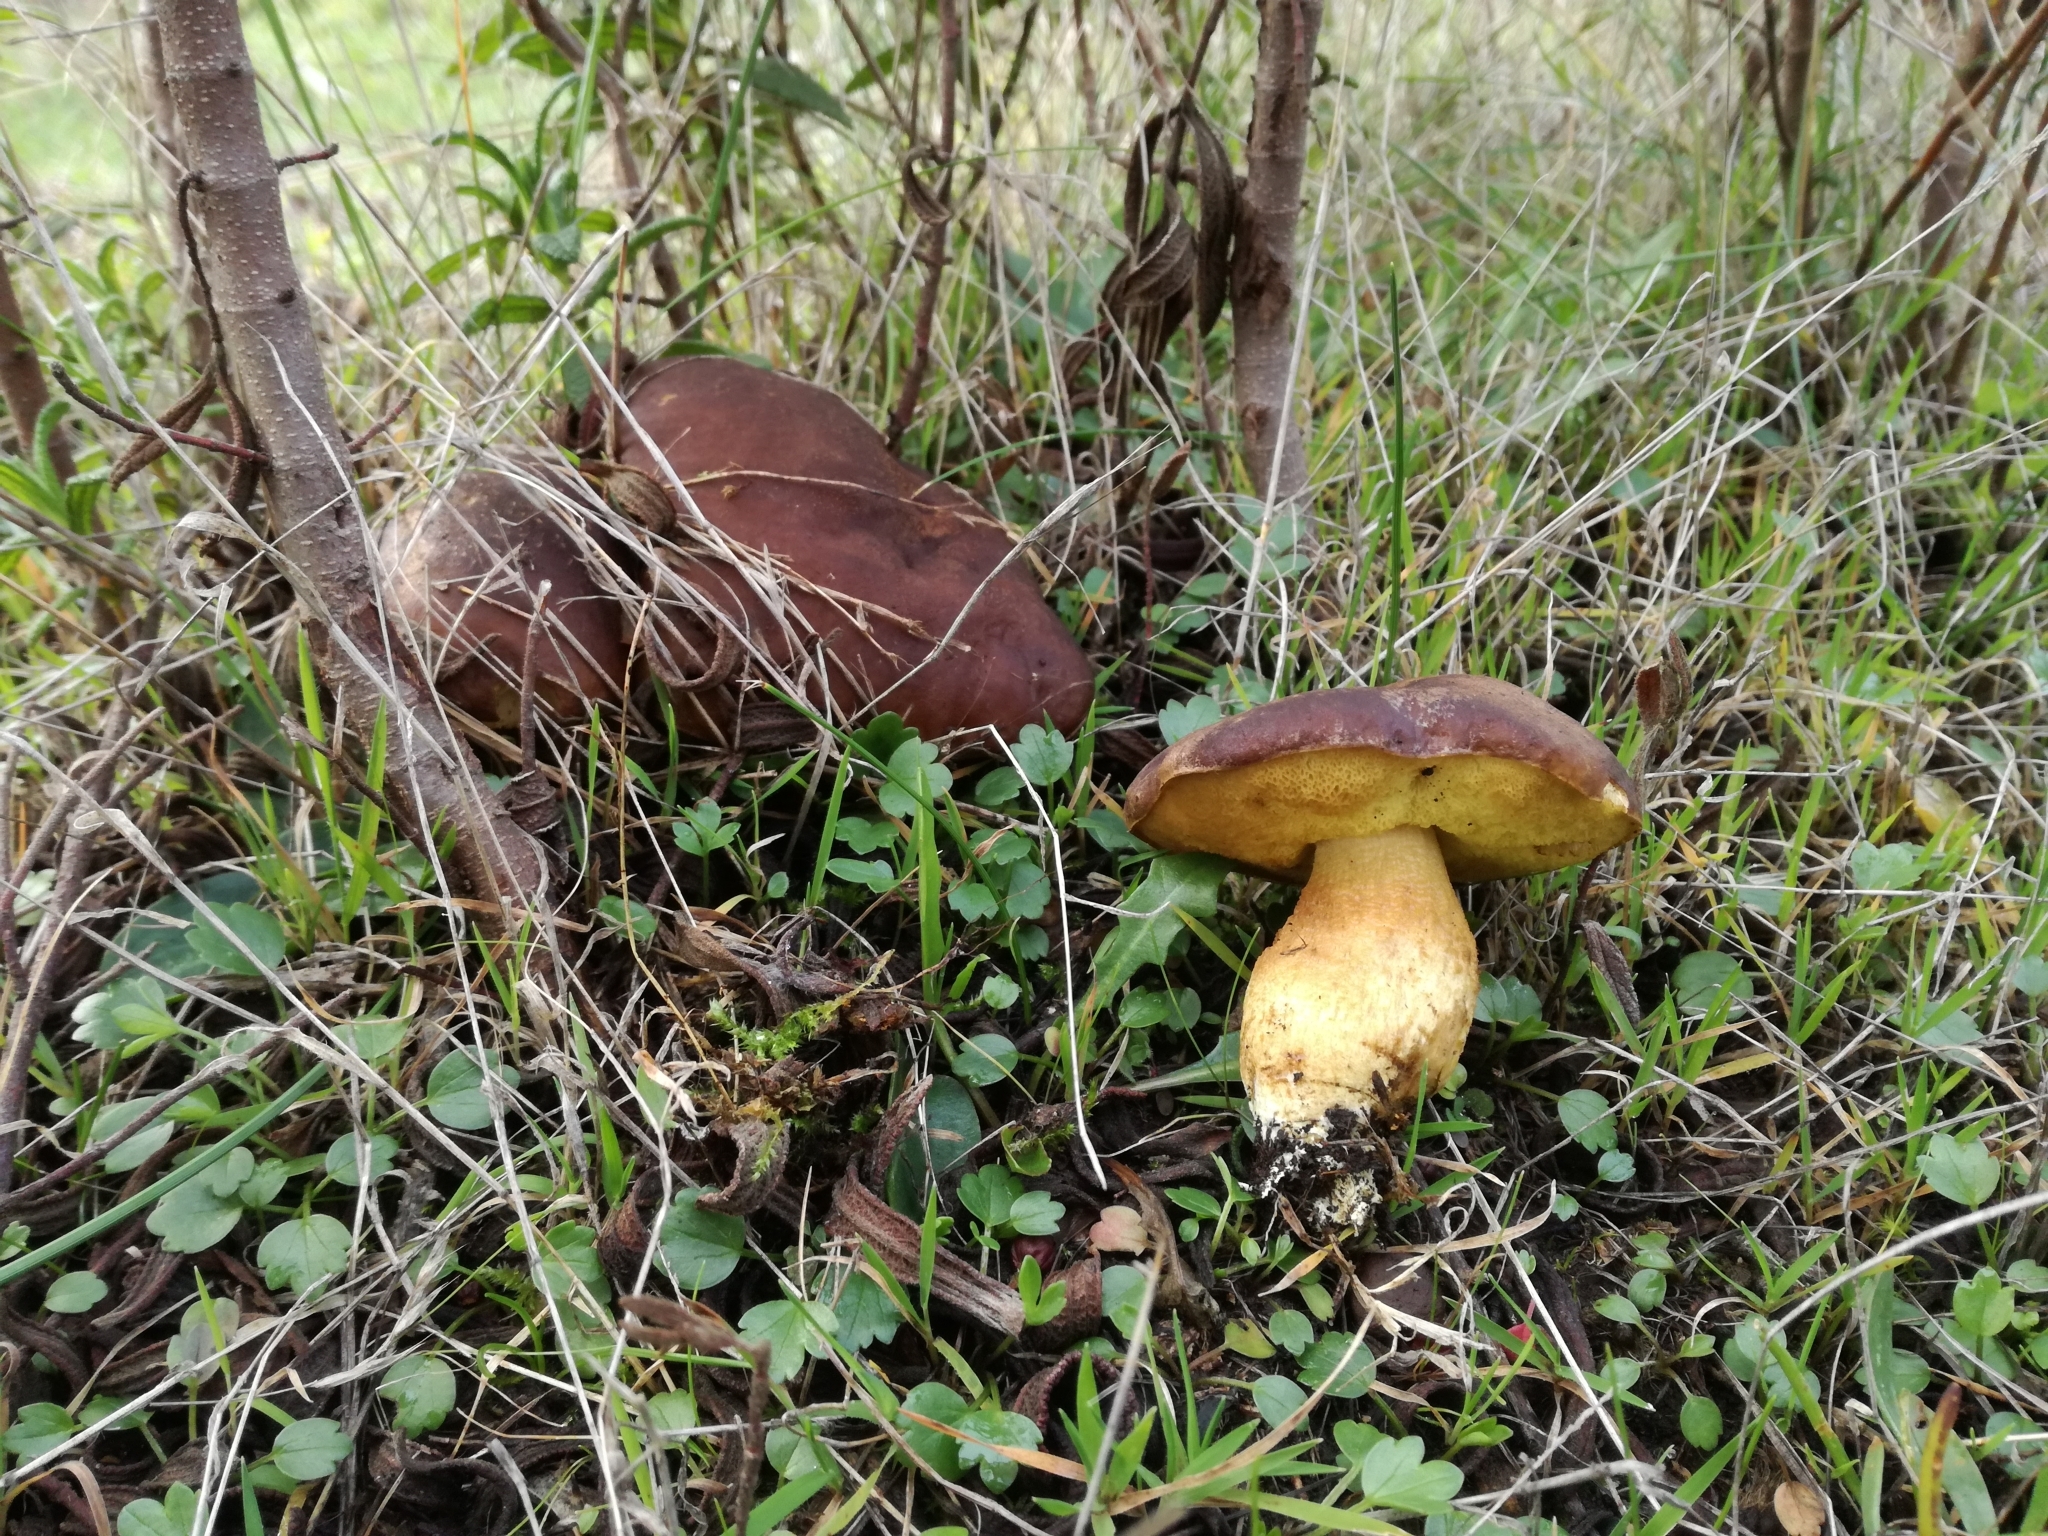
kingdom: Fungi
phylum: Basidiomycota
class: Agaricomycetes
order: Boletales
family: Boletaceae
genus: Leccinellum
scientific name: Leccinellum corsicum
